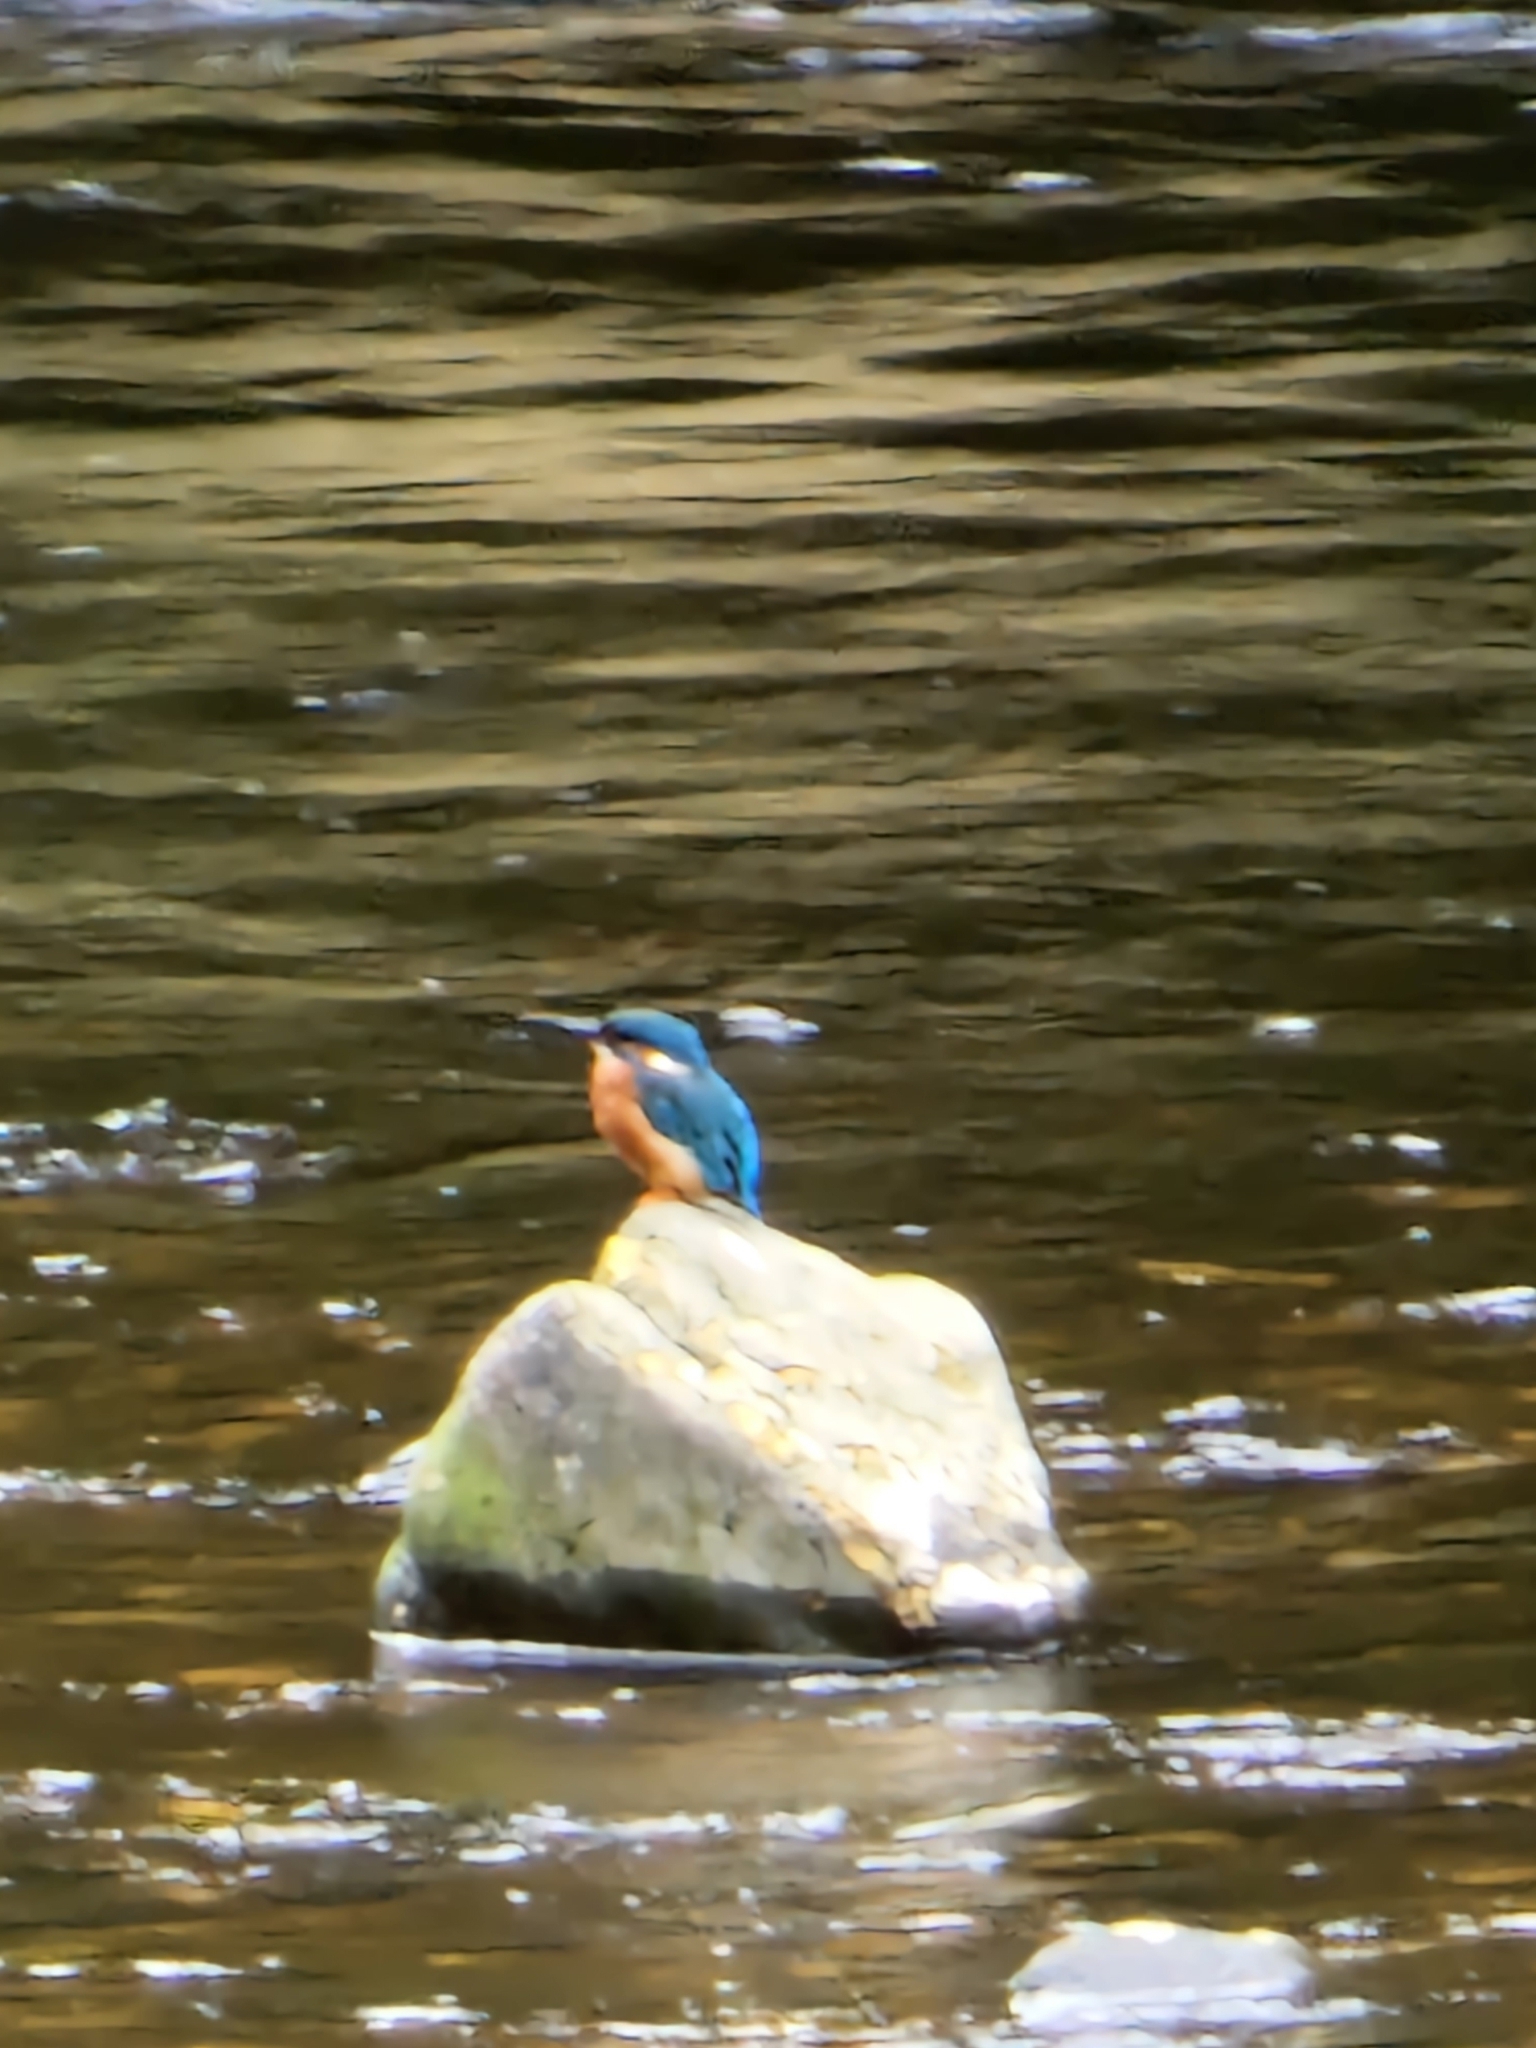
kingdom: Animalia
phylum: Chordata
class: Aves
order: Coraciiformes
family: Alcedinidae
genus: Alcedo
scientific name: Alcedo atthis
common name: Common kingfisher
